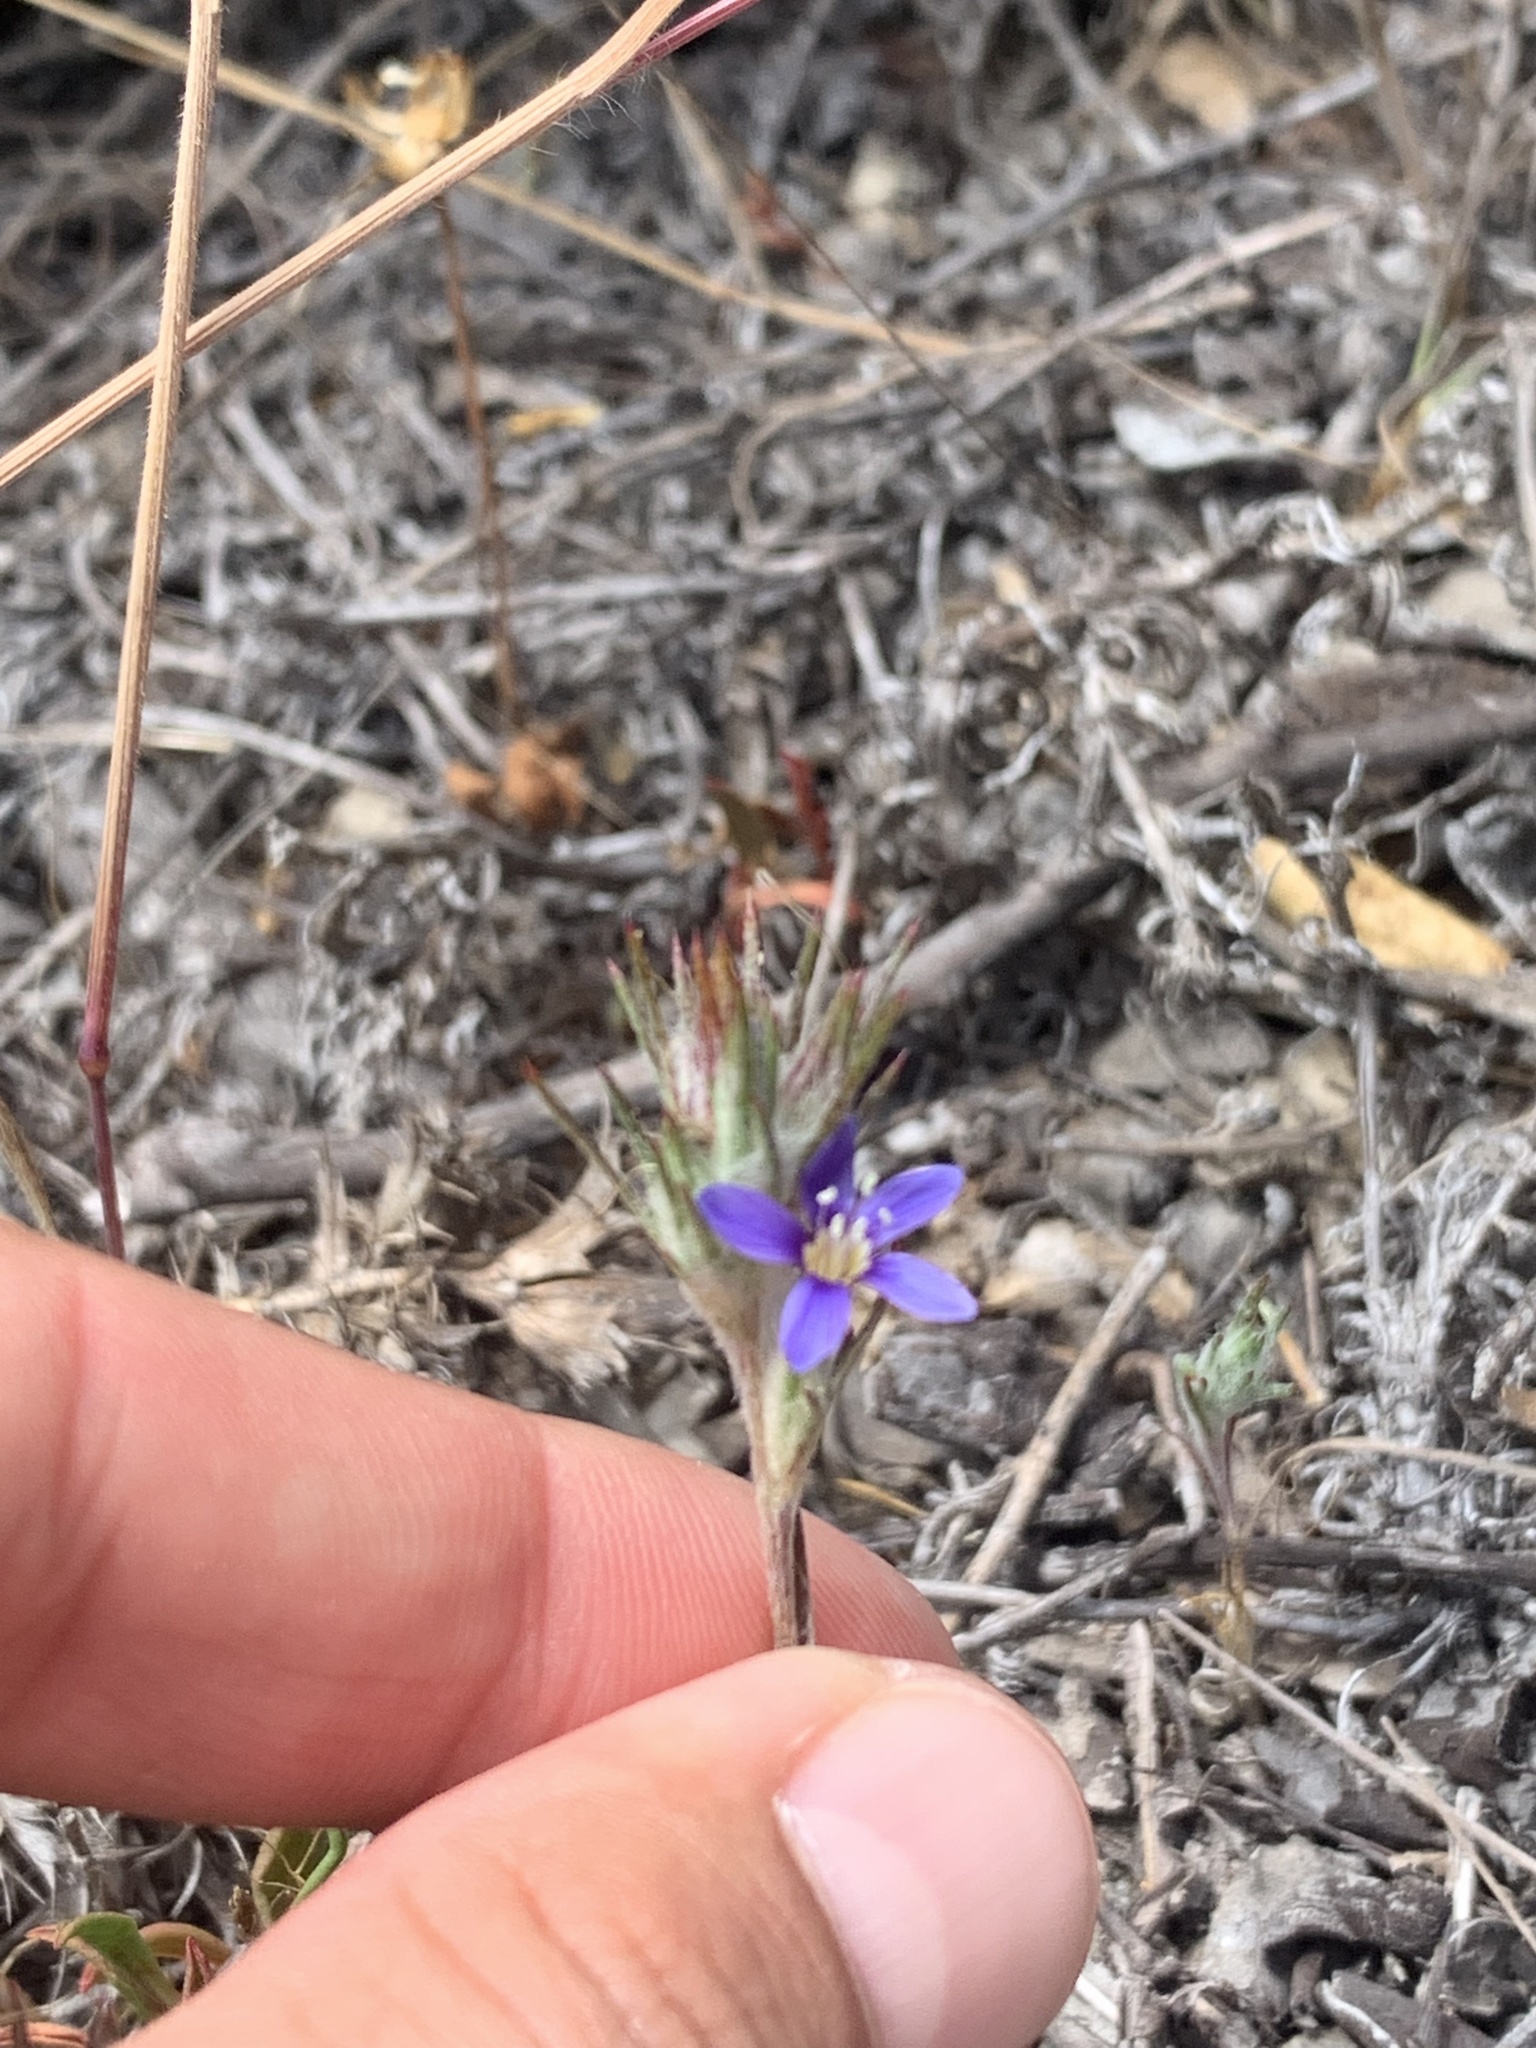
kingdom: Plantae
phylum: Tracheophyta
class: Magnoliopsida
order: Ericales
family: Polemoniaceae
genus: Eriastrum
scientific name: Eriastrum virgatum
